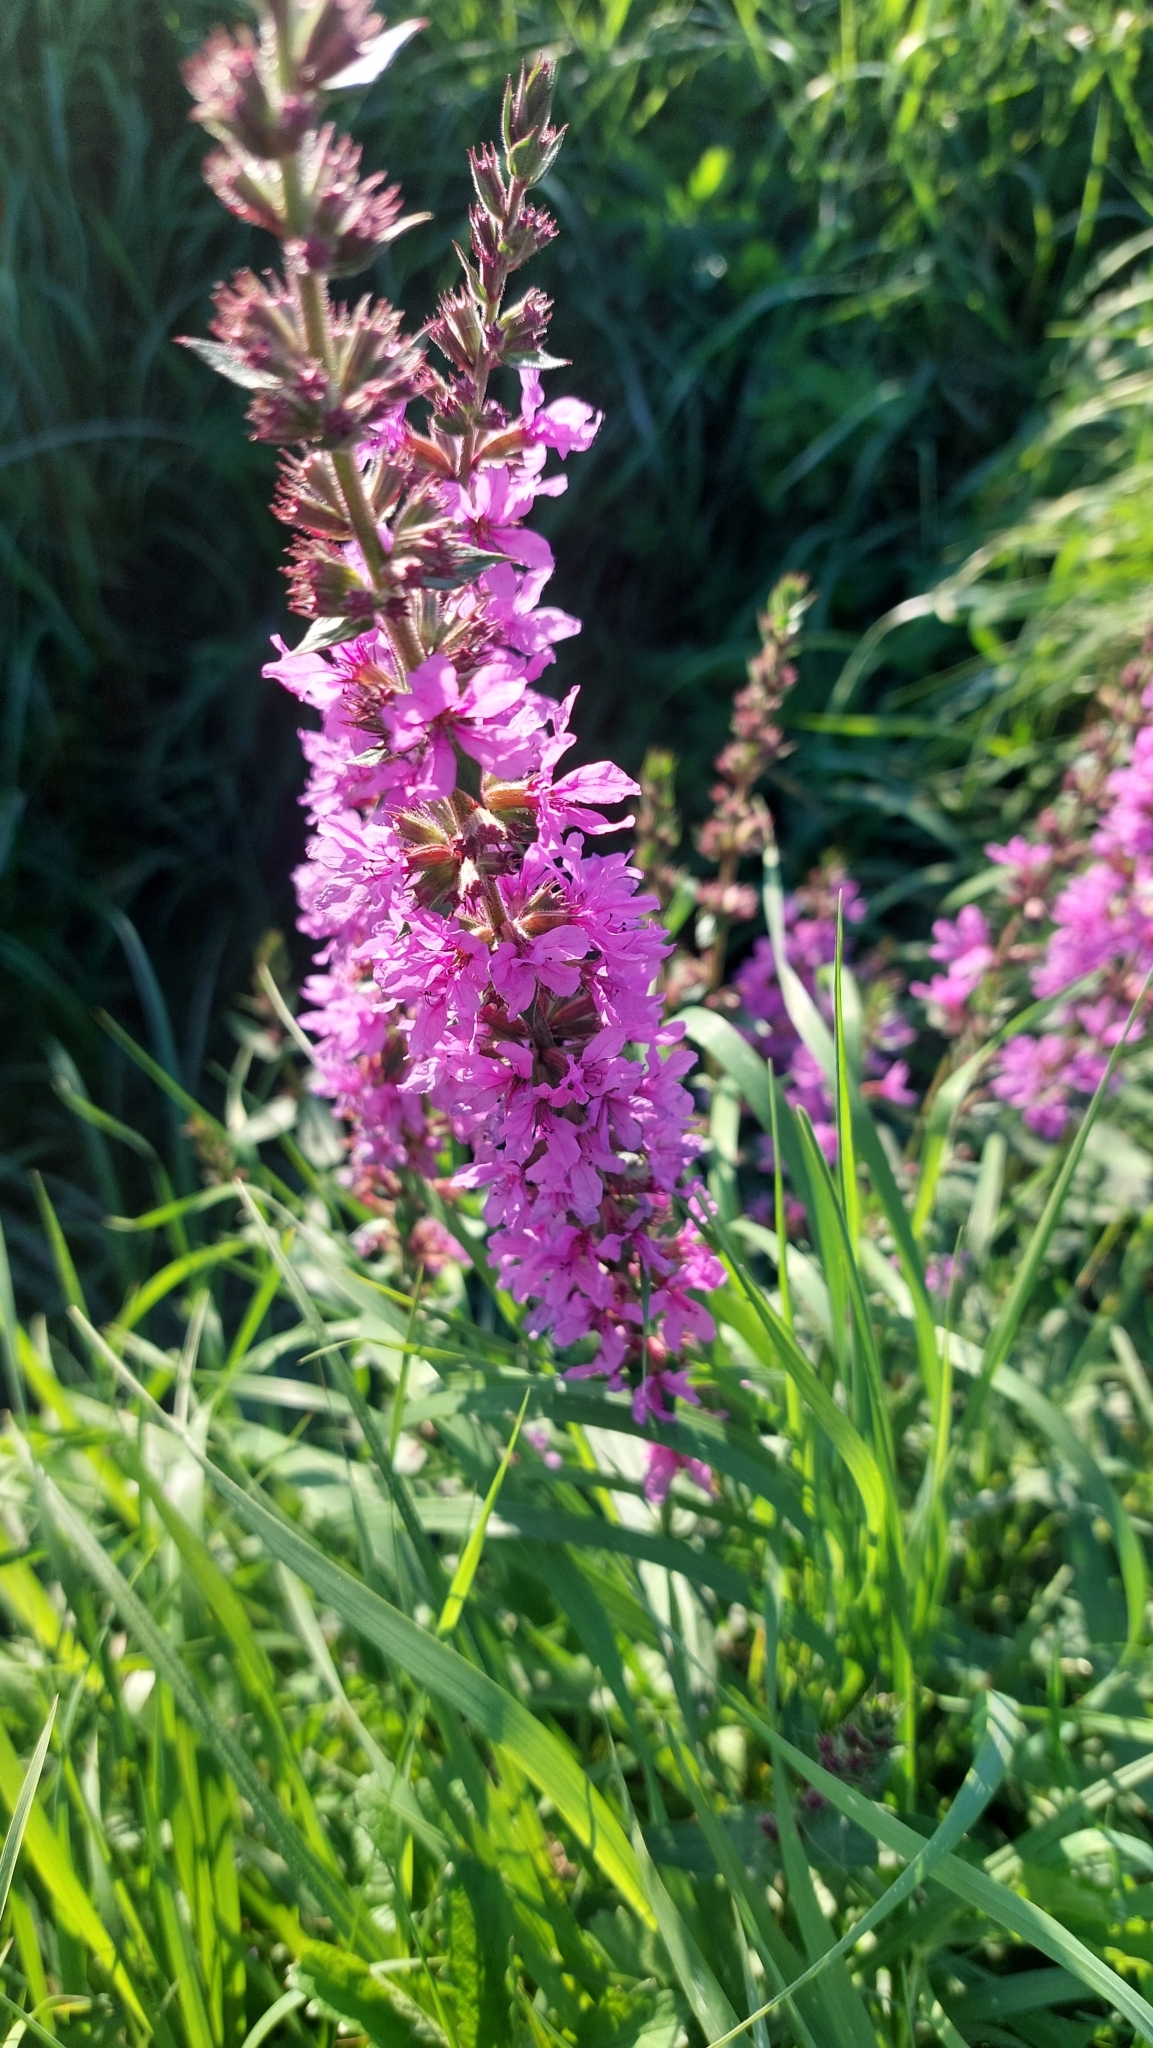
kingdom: Plantae
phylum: Tracheophyta
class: Magnoliopsida
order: Myrtales
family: Lythraceae
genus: Lythrum
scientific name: Lythrum salicaria
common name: Purple loosestrife
